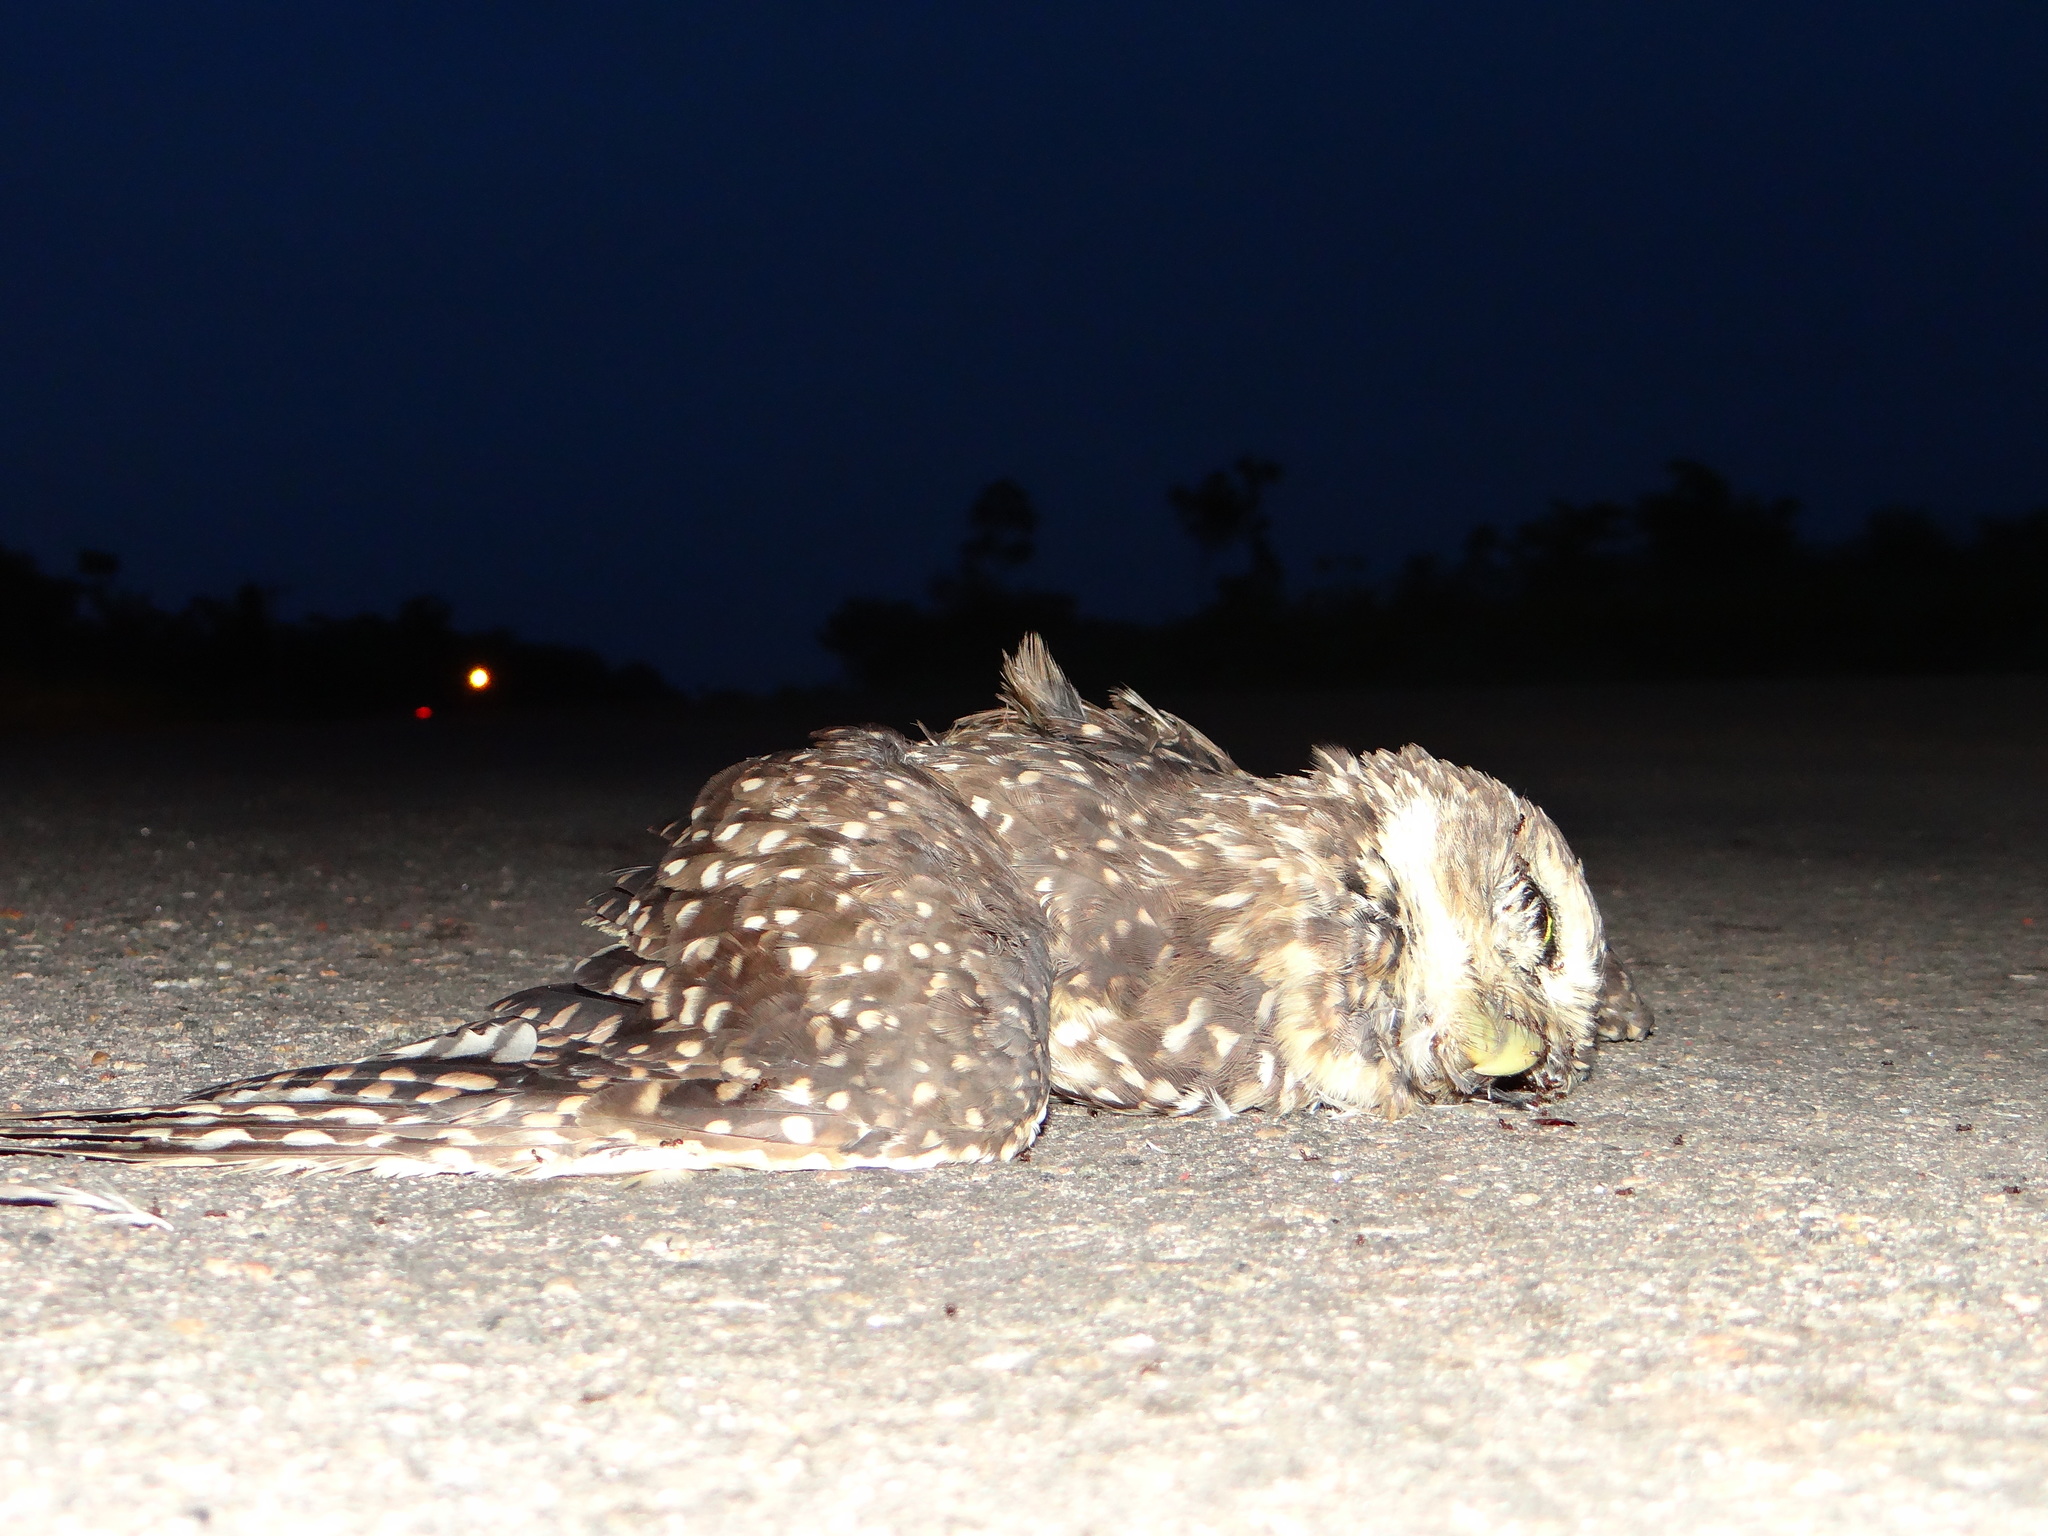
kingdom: Animalia
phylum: Chordata
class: Aves
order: Strigiformes
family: Strigidae
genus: Athene
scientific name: Athene cunicularia
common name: Burrowing owl
